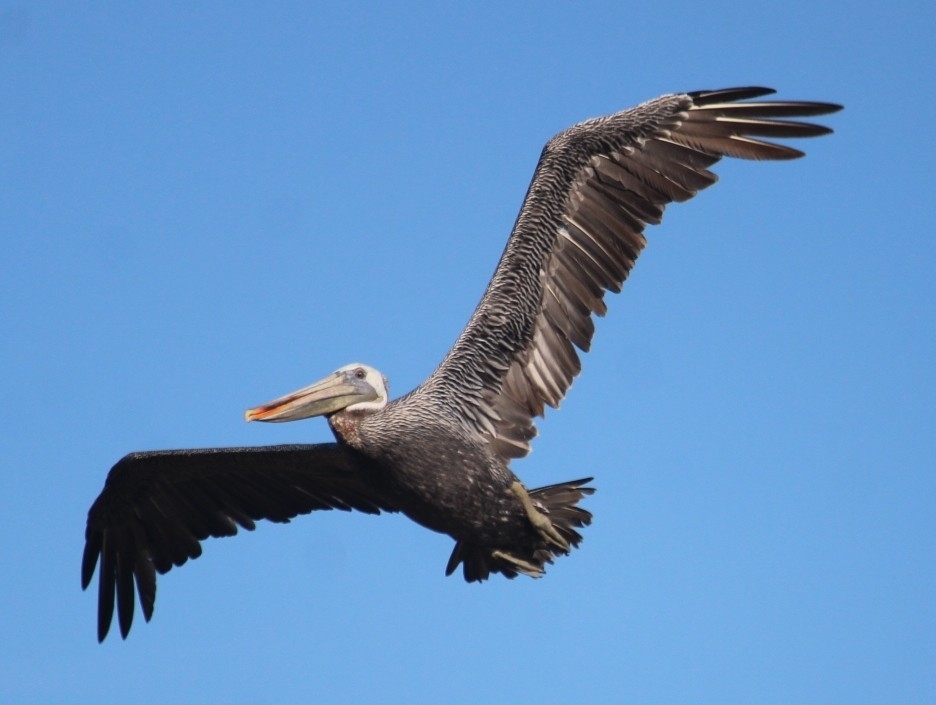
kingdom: Animalia
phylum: Chordata
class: Aves
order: Pelecaniformes
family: Pelecanidae
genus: Pelecanus
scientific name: Pelecanus occidentalis
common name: Brown pelican
